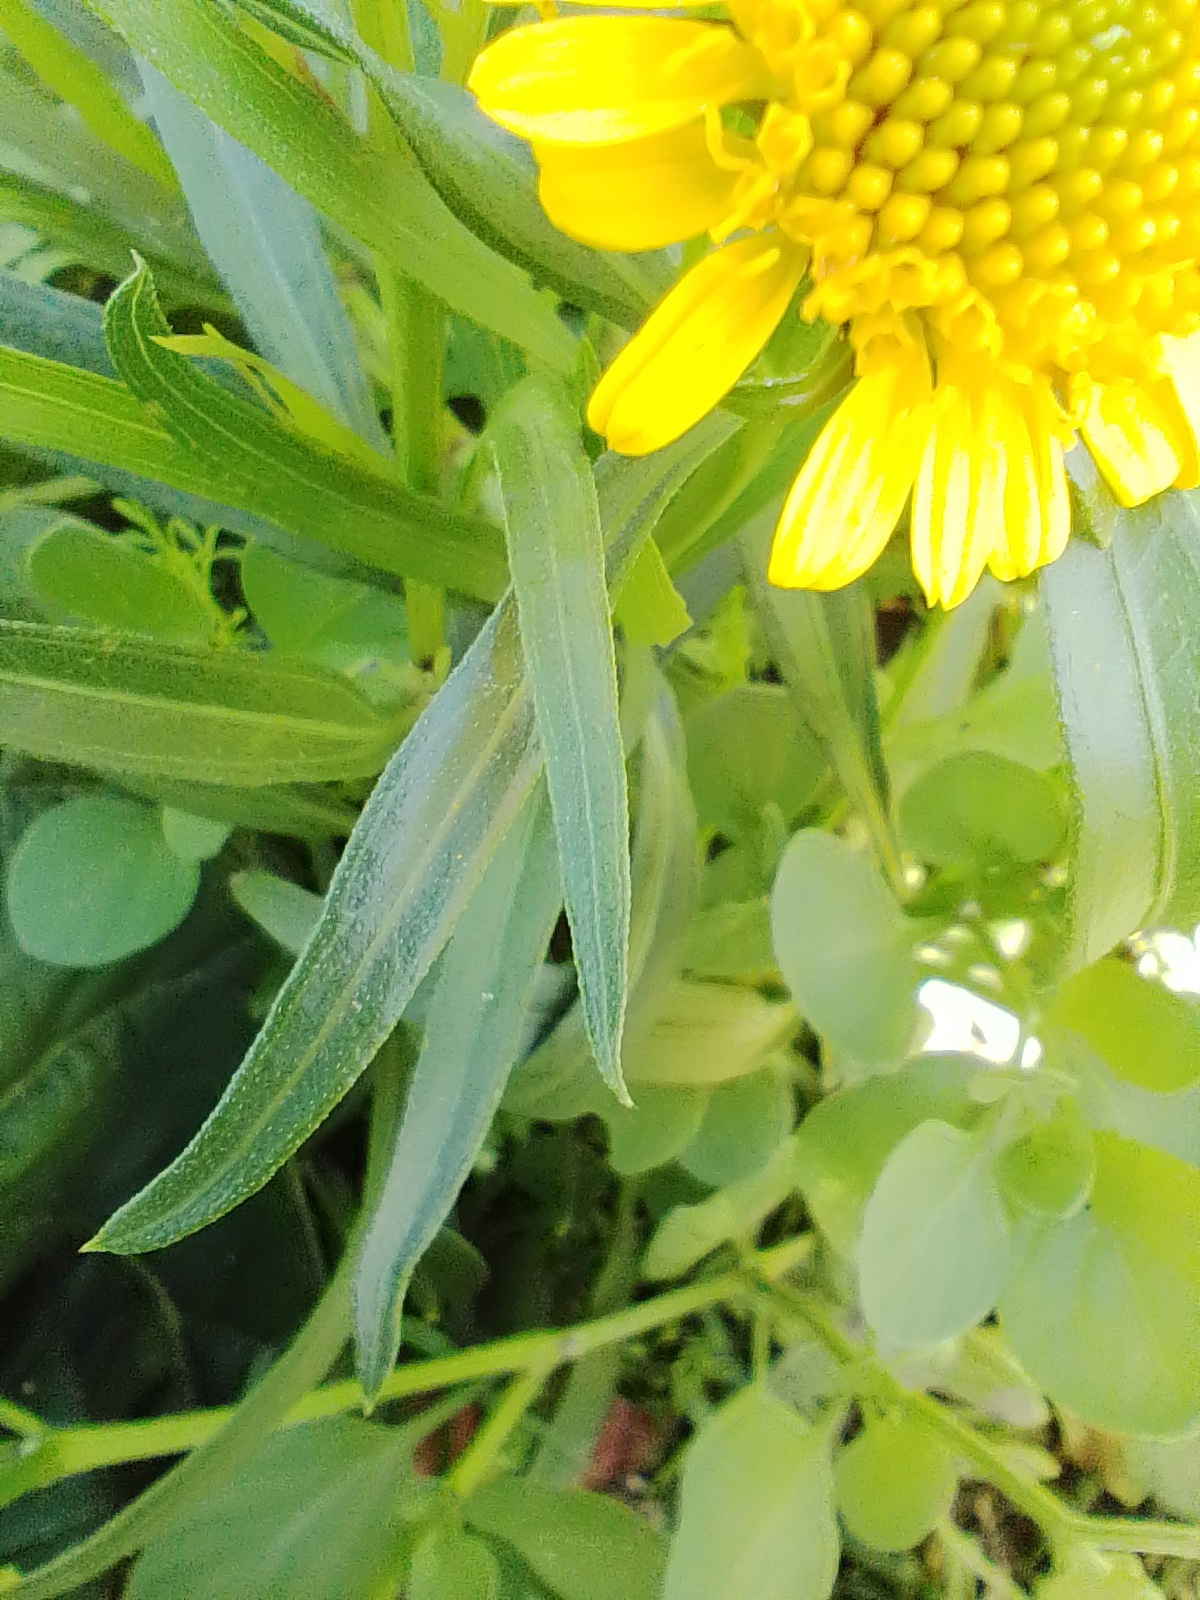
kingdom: Plantae
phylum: Tracheophyta
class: Magnoliopsida
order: Asterales
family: Asteraceae
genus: Pascalia
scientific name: Pascalia glauca
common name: Beach creeping oxeye
